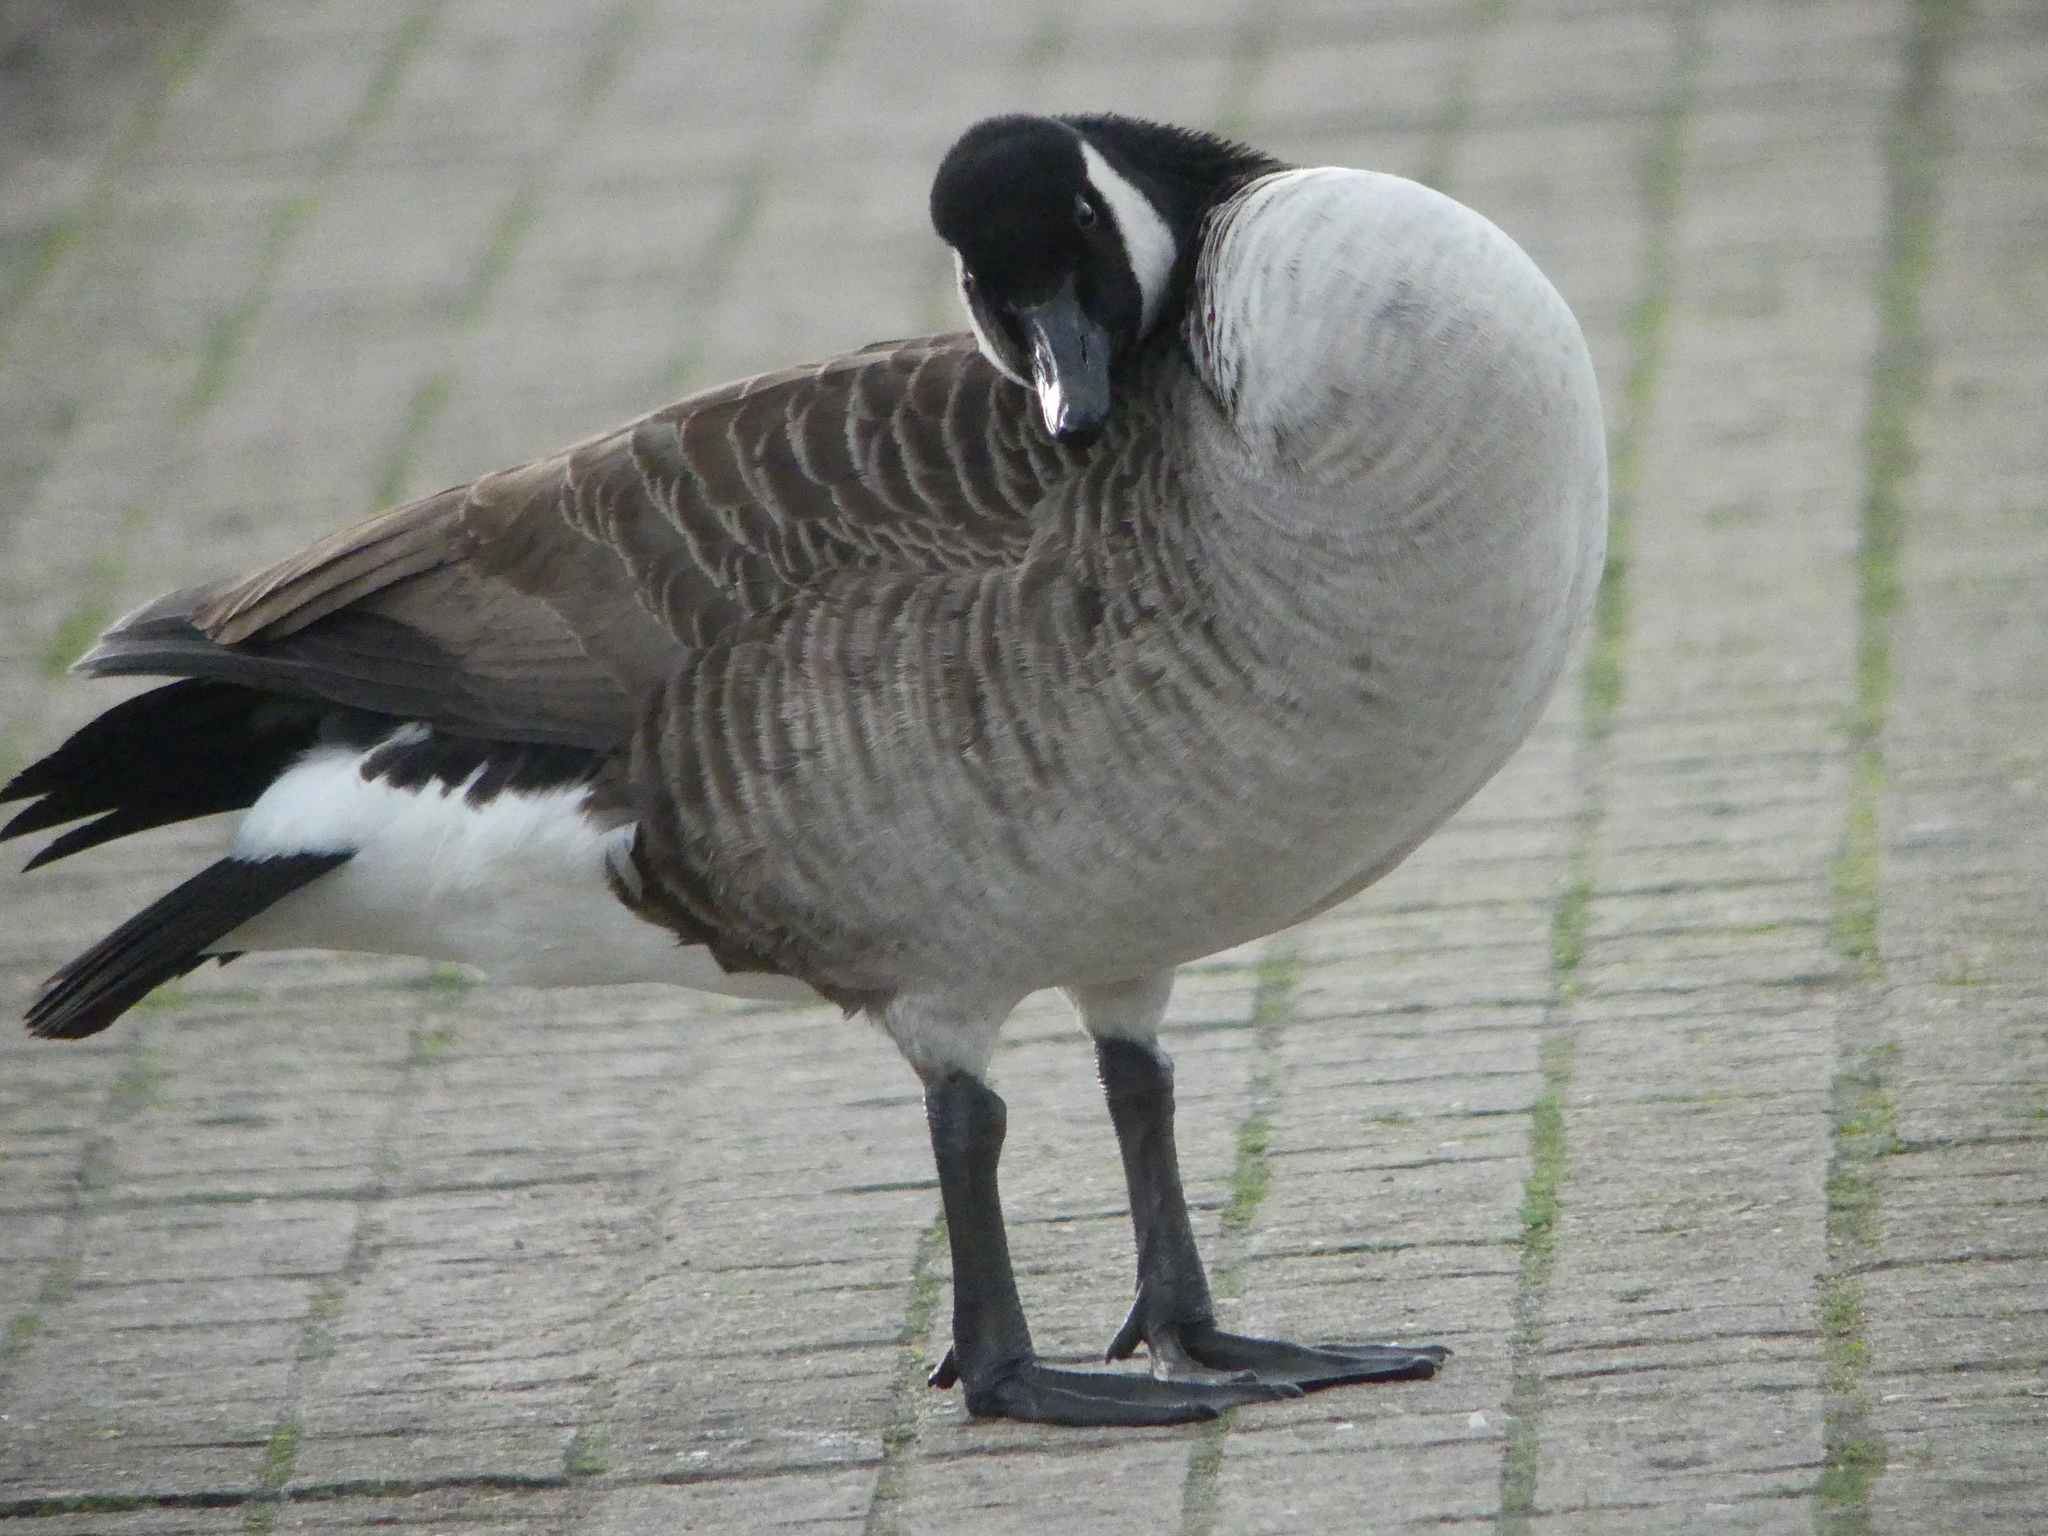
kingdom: Animalia
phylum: Chordata
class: Aves
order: Anseriformes
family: Anatidae
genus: Branta
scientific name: Branta canadensis
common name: Canada goose
